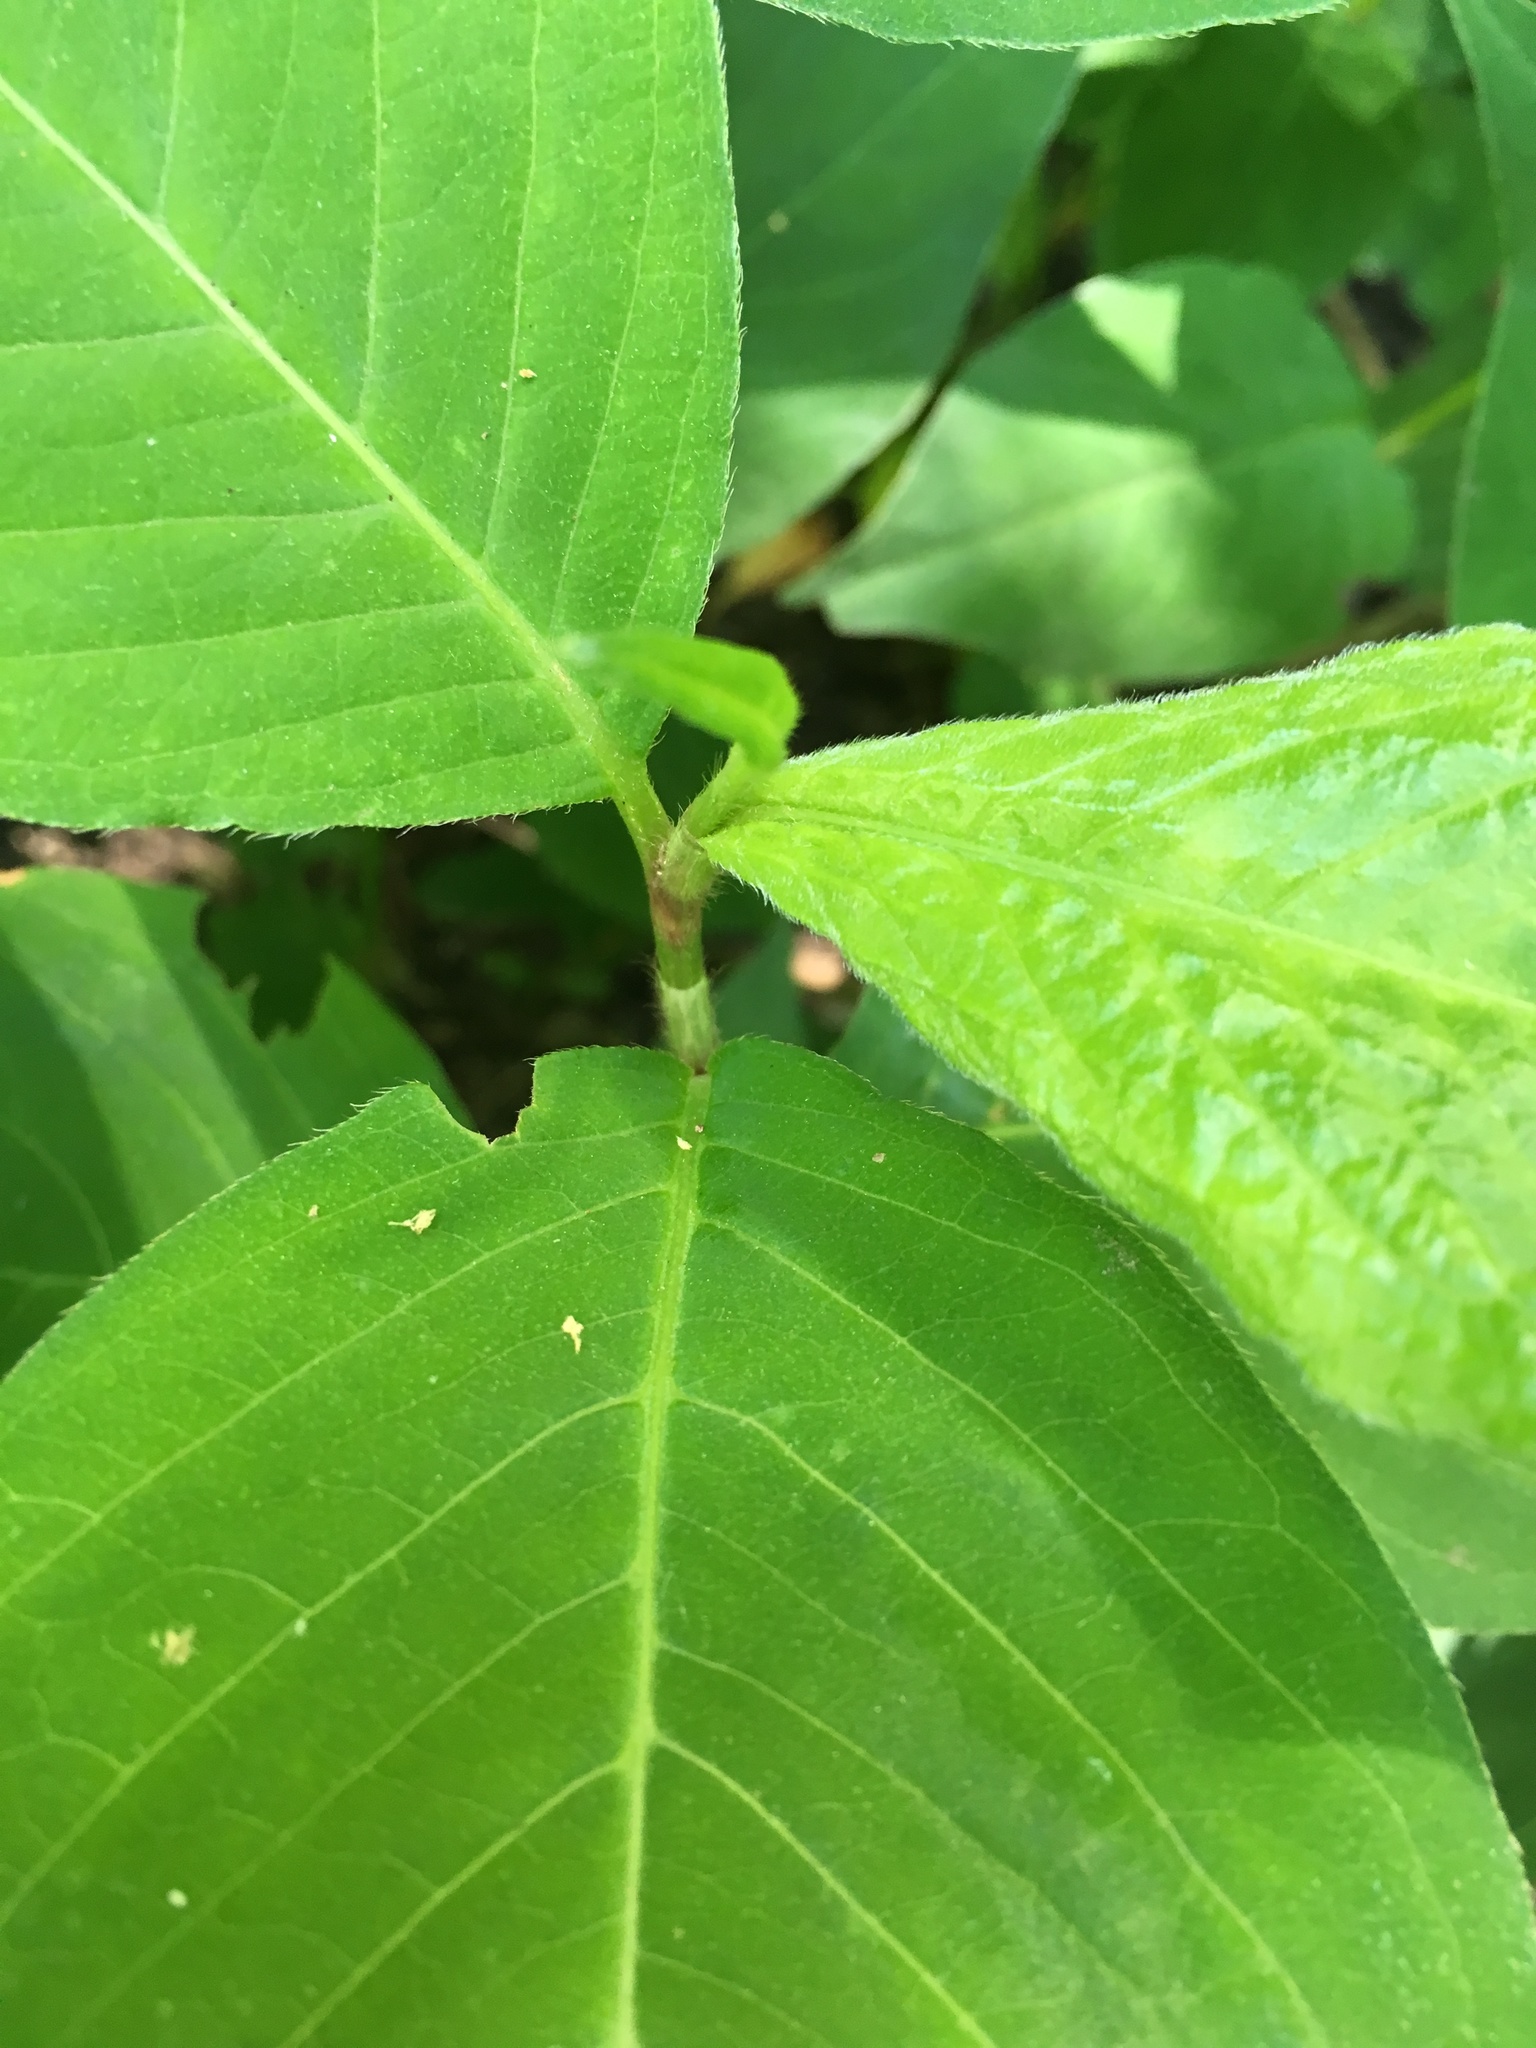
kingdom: Plantae
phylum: Tracheophyta
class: Magnoliopsida
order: Caryophyllales
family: Polygonaceae
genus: Persicaria
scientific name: Persicaria virginiana
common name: Jumpseed
